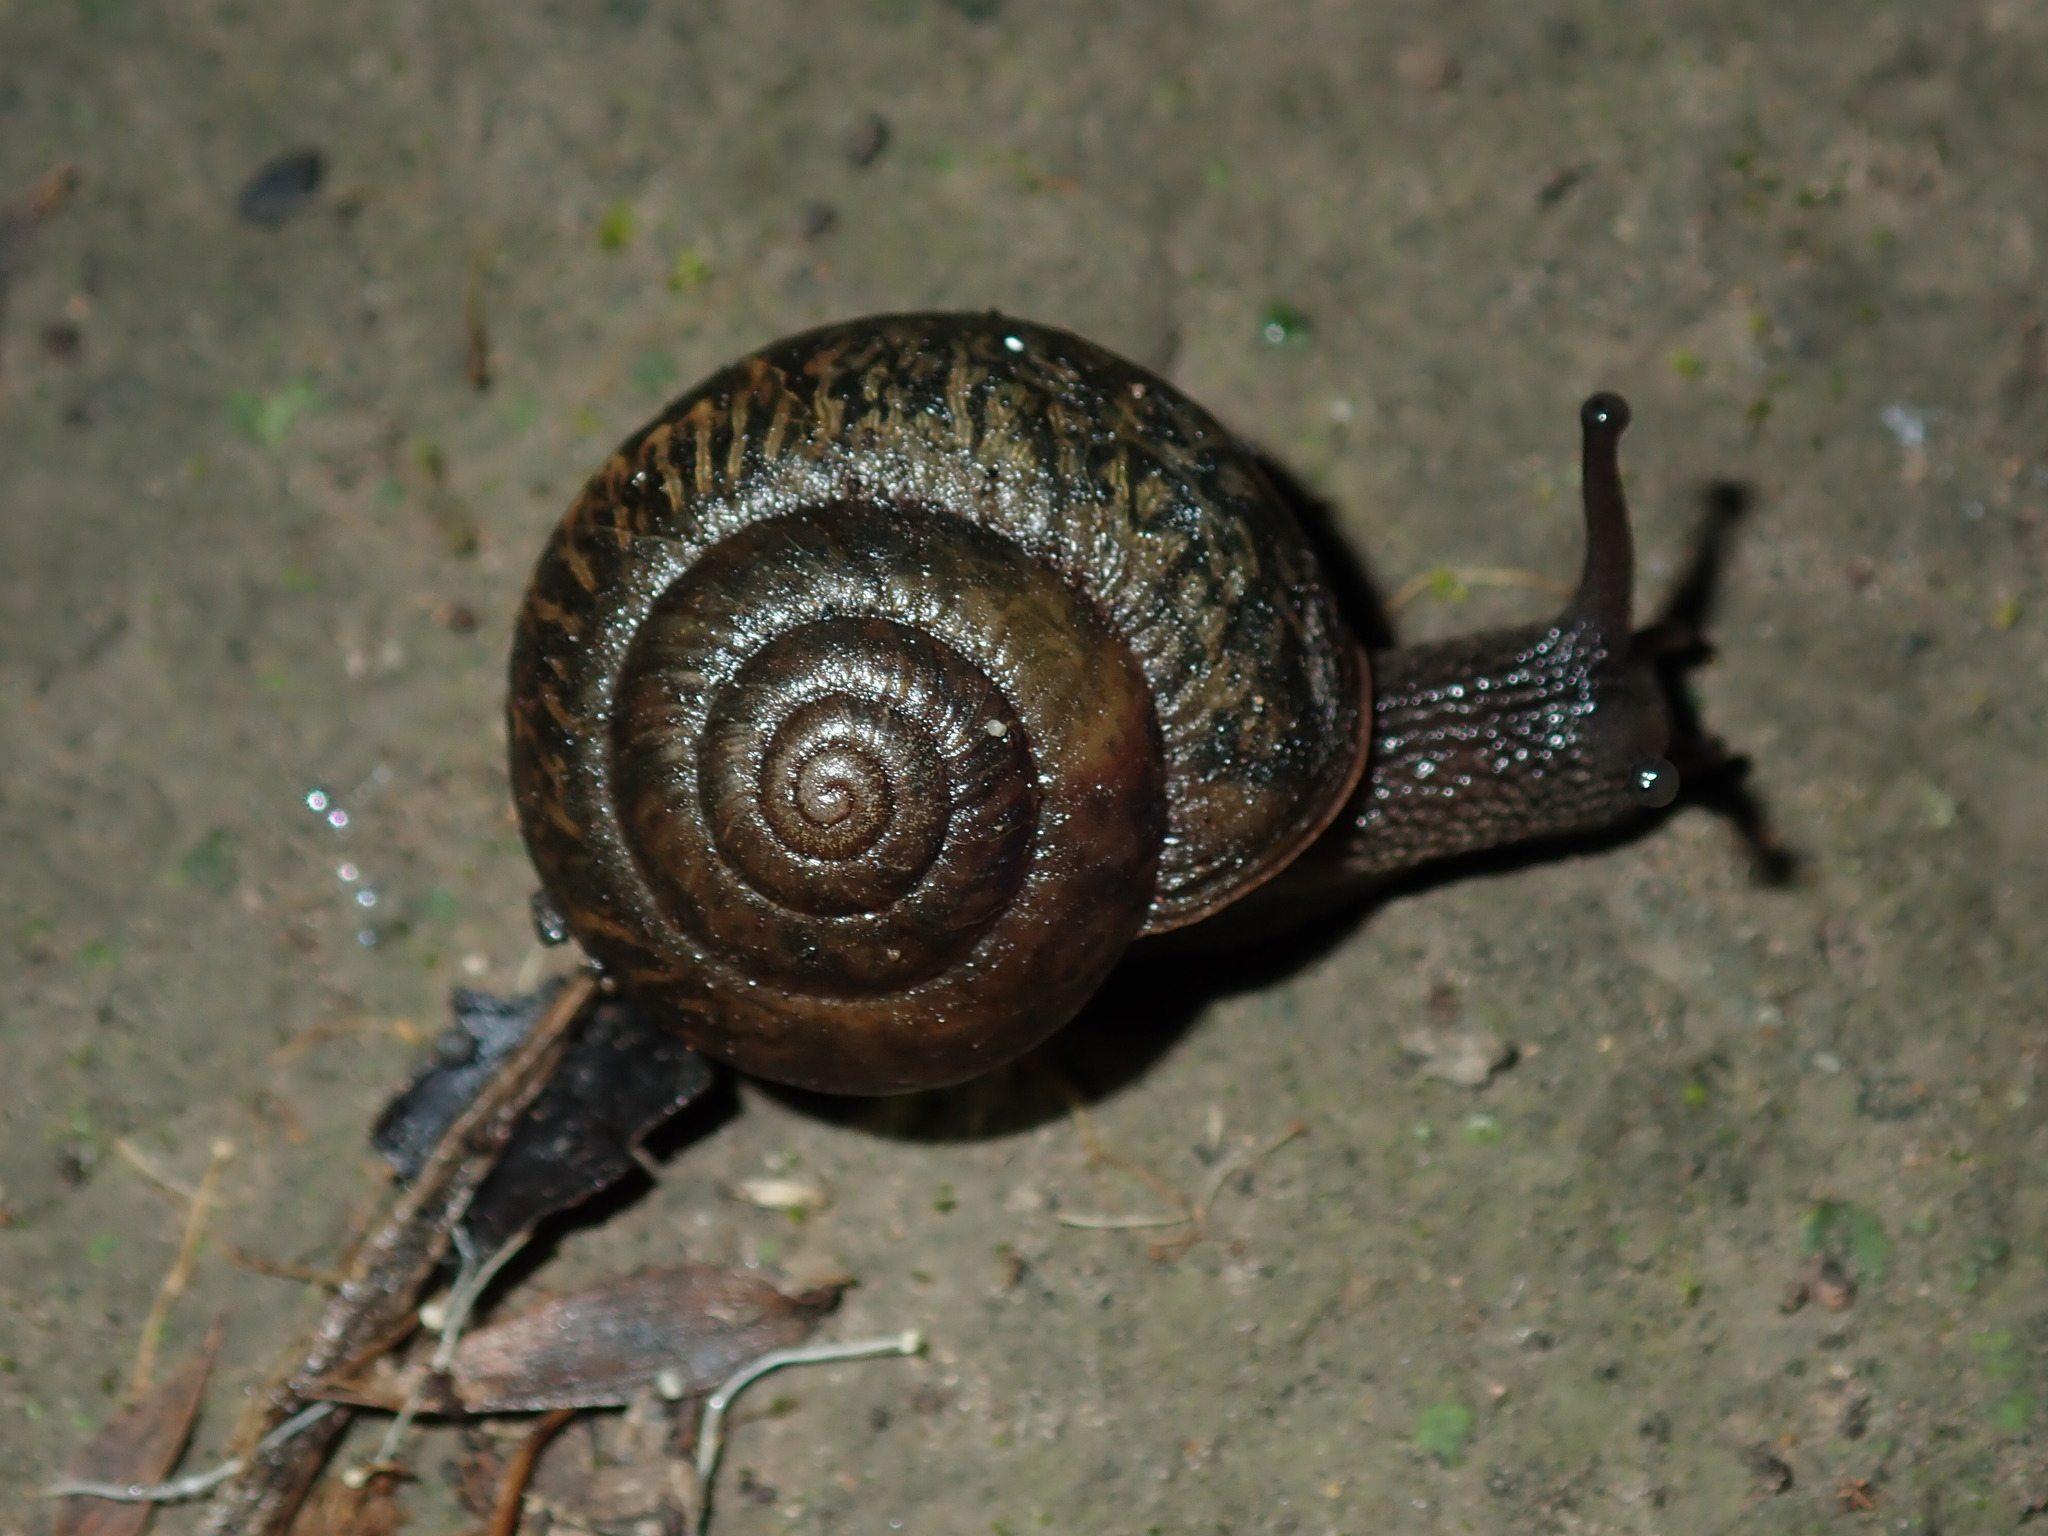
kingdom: Animalia
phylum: Mollusca
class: Gastropoda
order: Stylommatophora
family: Camaenidae
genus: Sauroconcha
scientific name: Sauroconcha sheai
